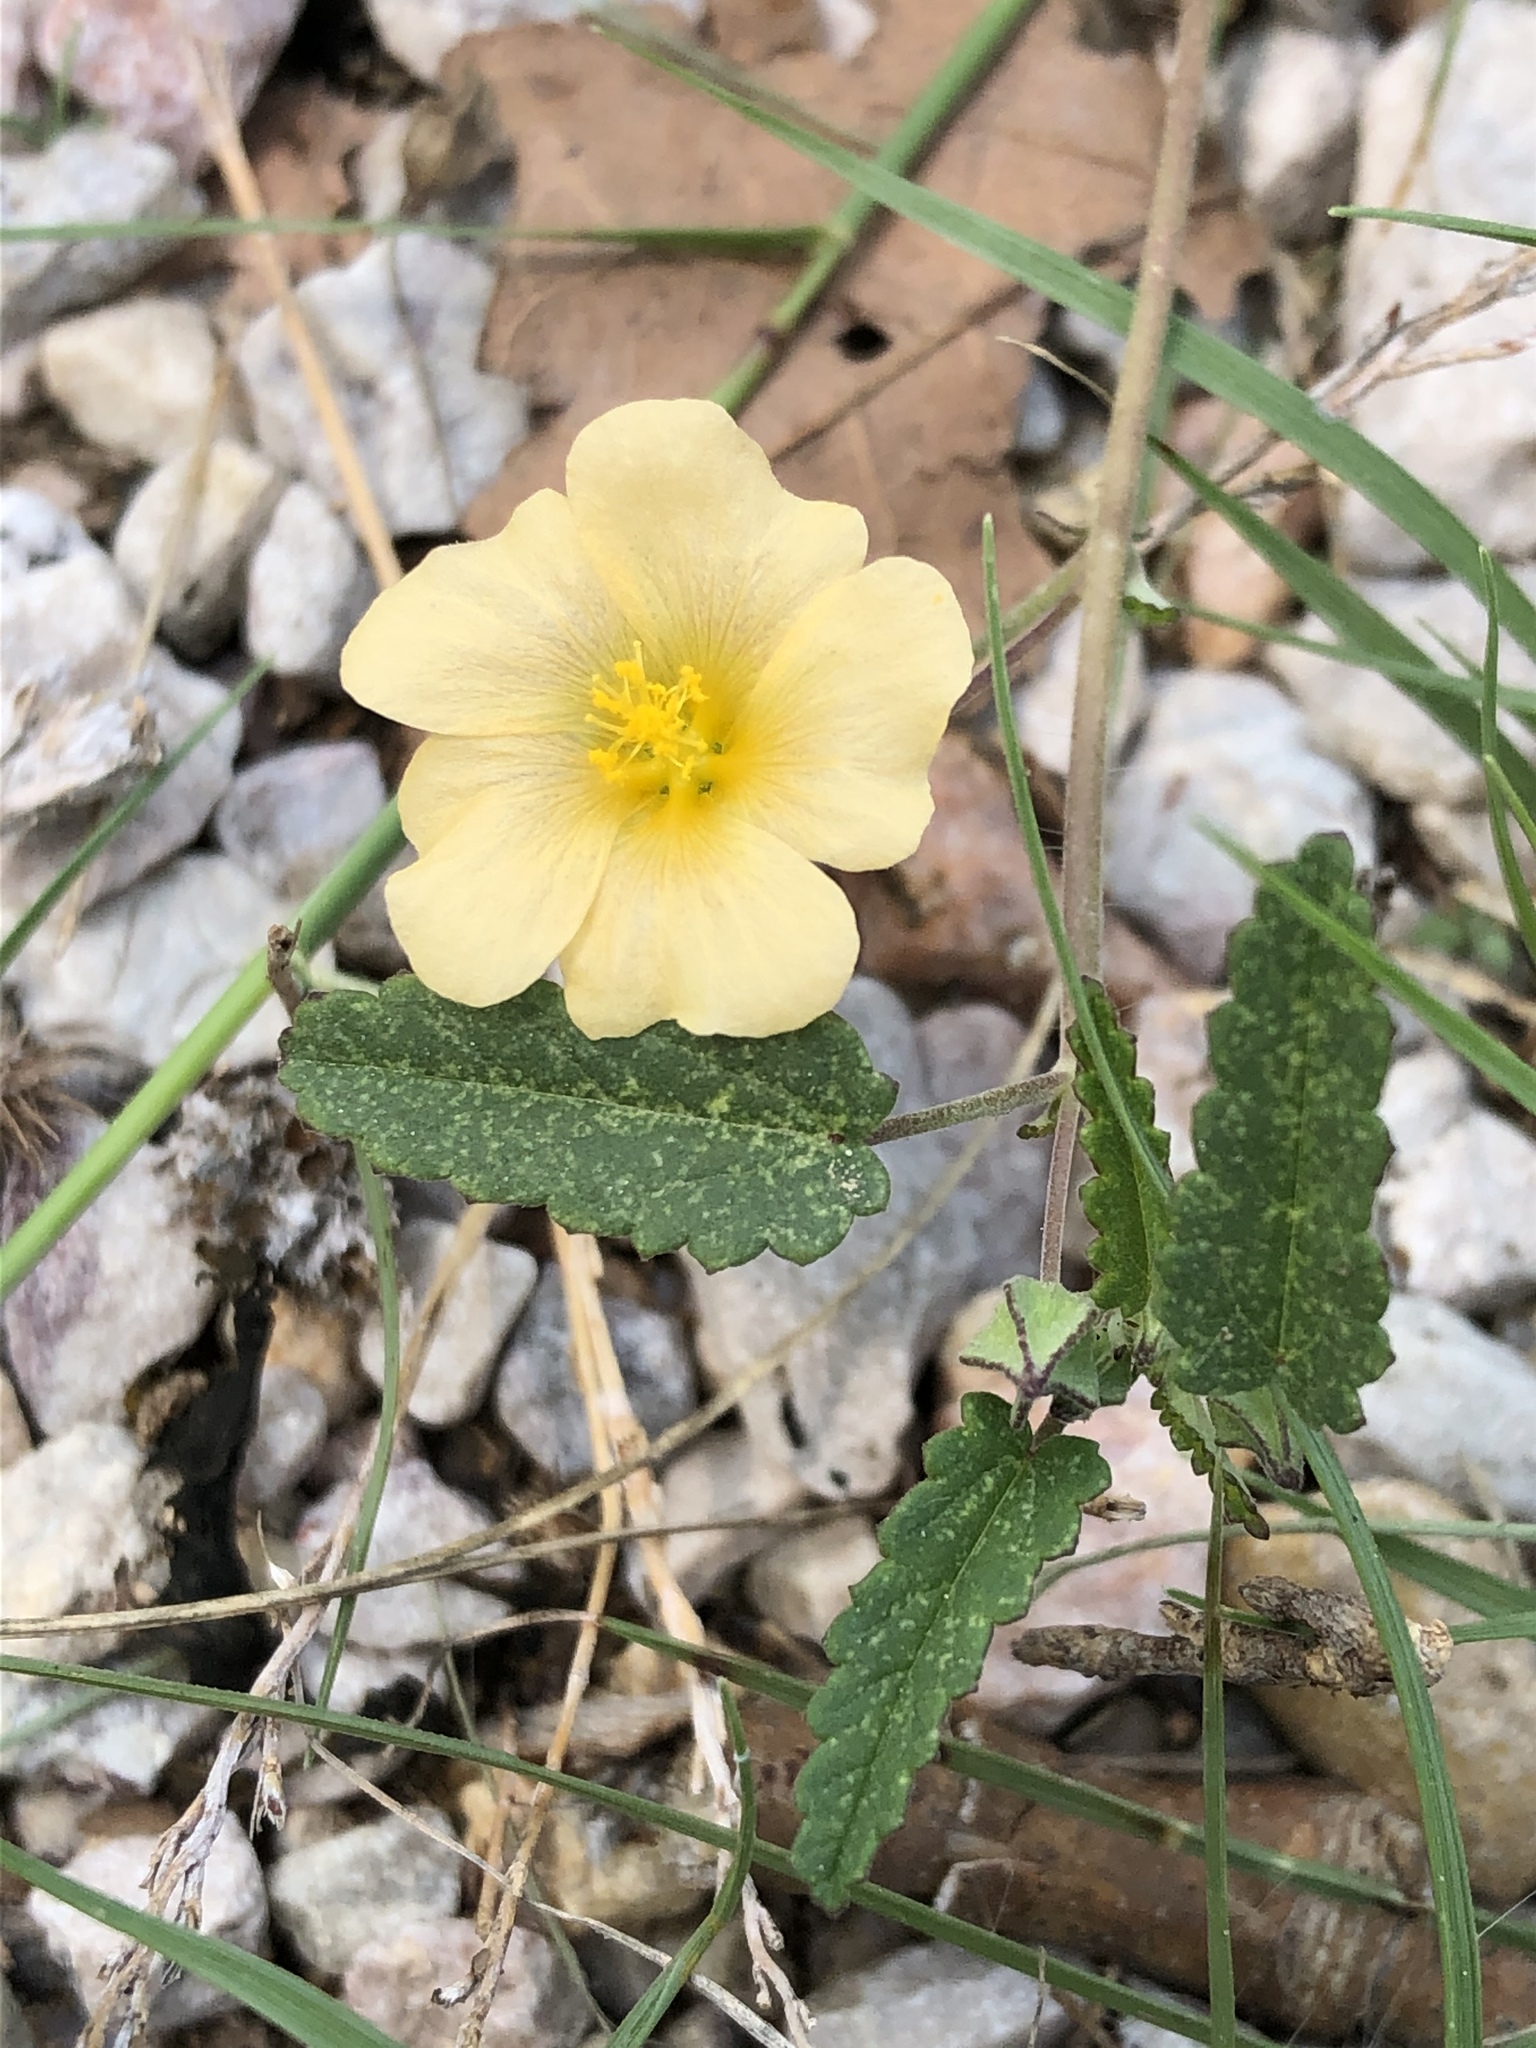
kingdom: Plantae
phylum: Tracheophyta
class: Magnoliopsida
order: Malvales
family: Malvaceae
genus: Sida
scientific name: Sida abutilifolia
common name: Spreading fanpetals
